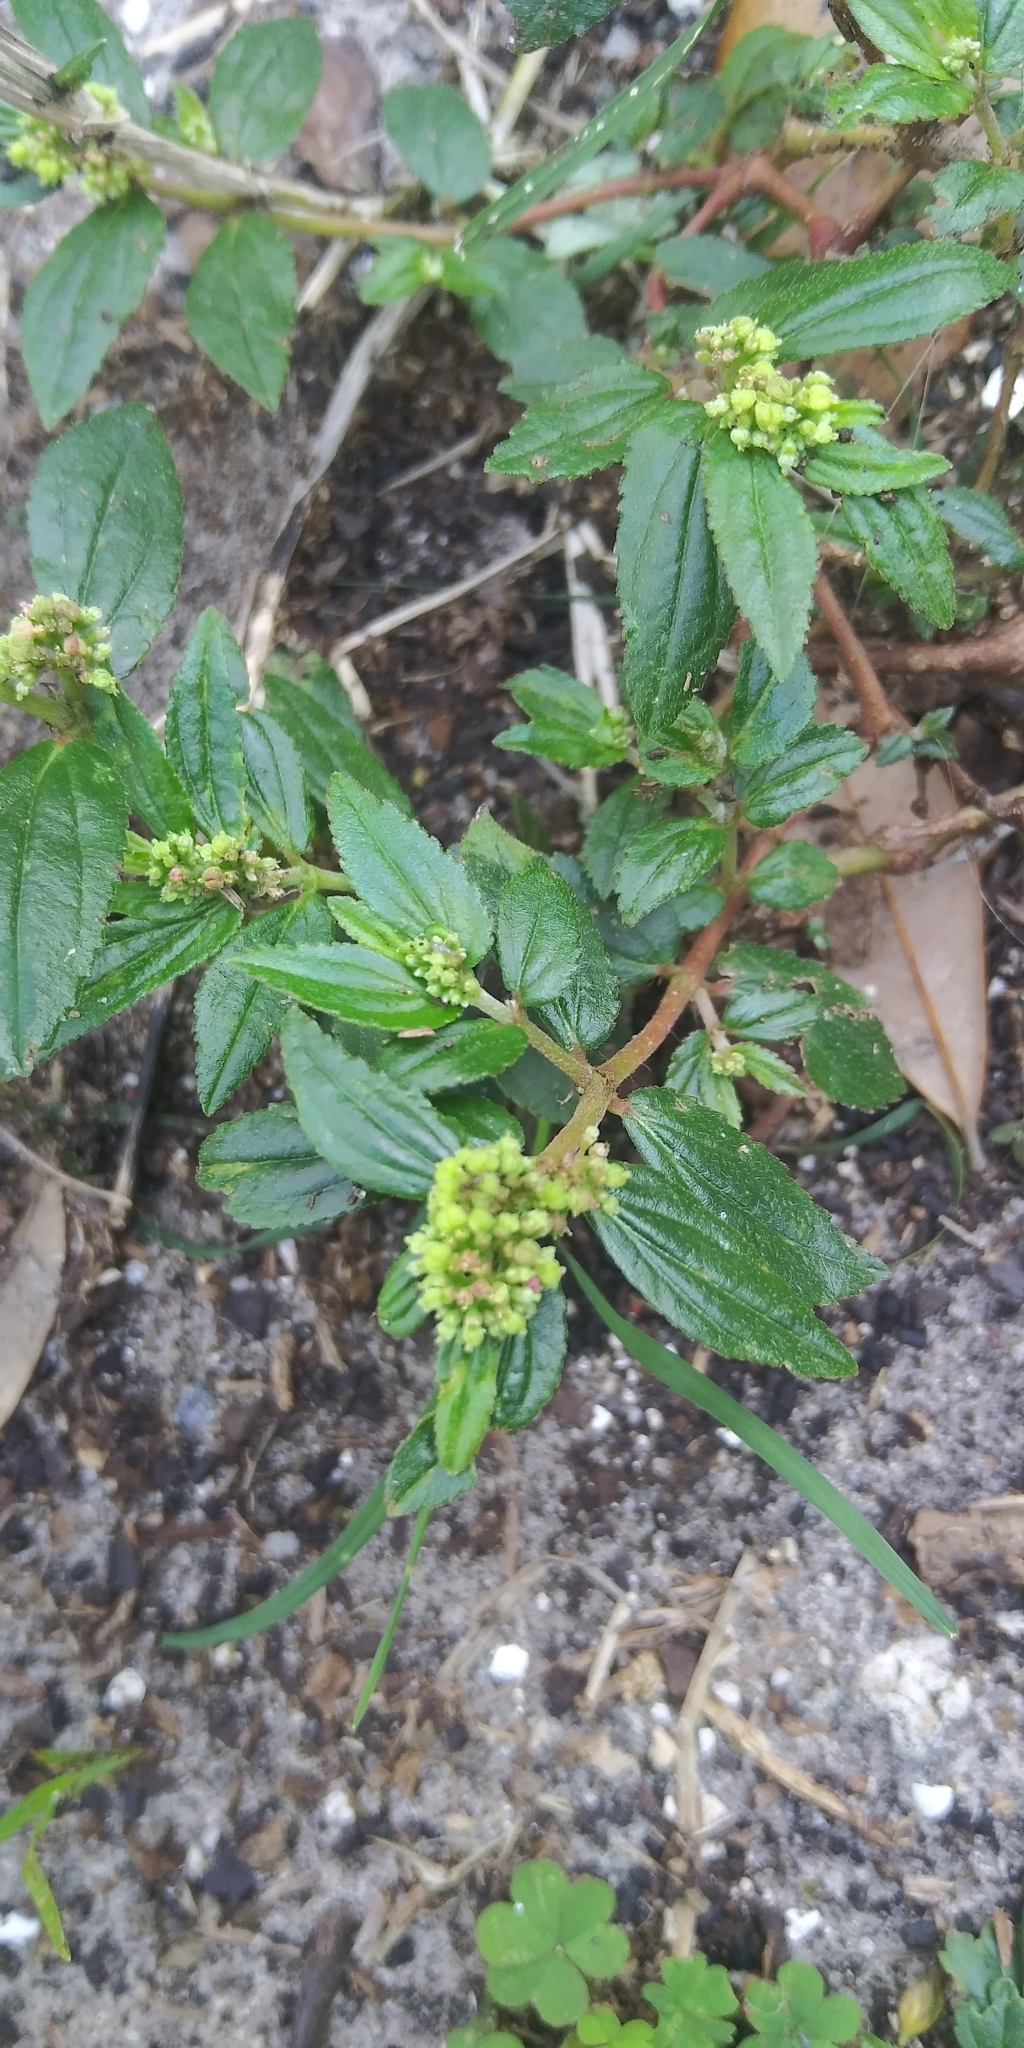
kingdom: Plantae
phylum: Tracheophyta
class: Magnoliopsida
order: Malpighiales
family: Euphorbiaceae
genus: Euphorbia
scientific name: Euphorbia hirta
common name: Pillpod sandmat
